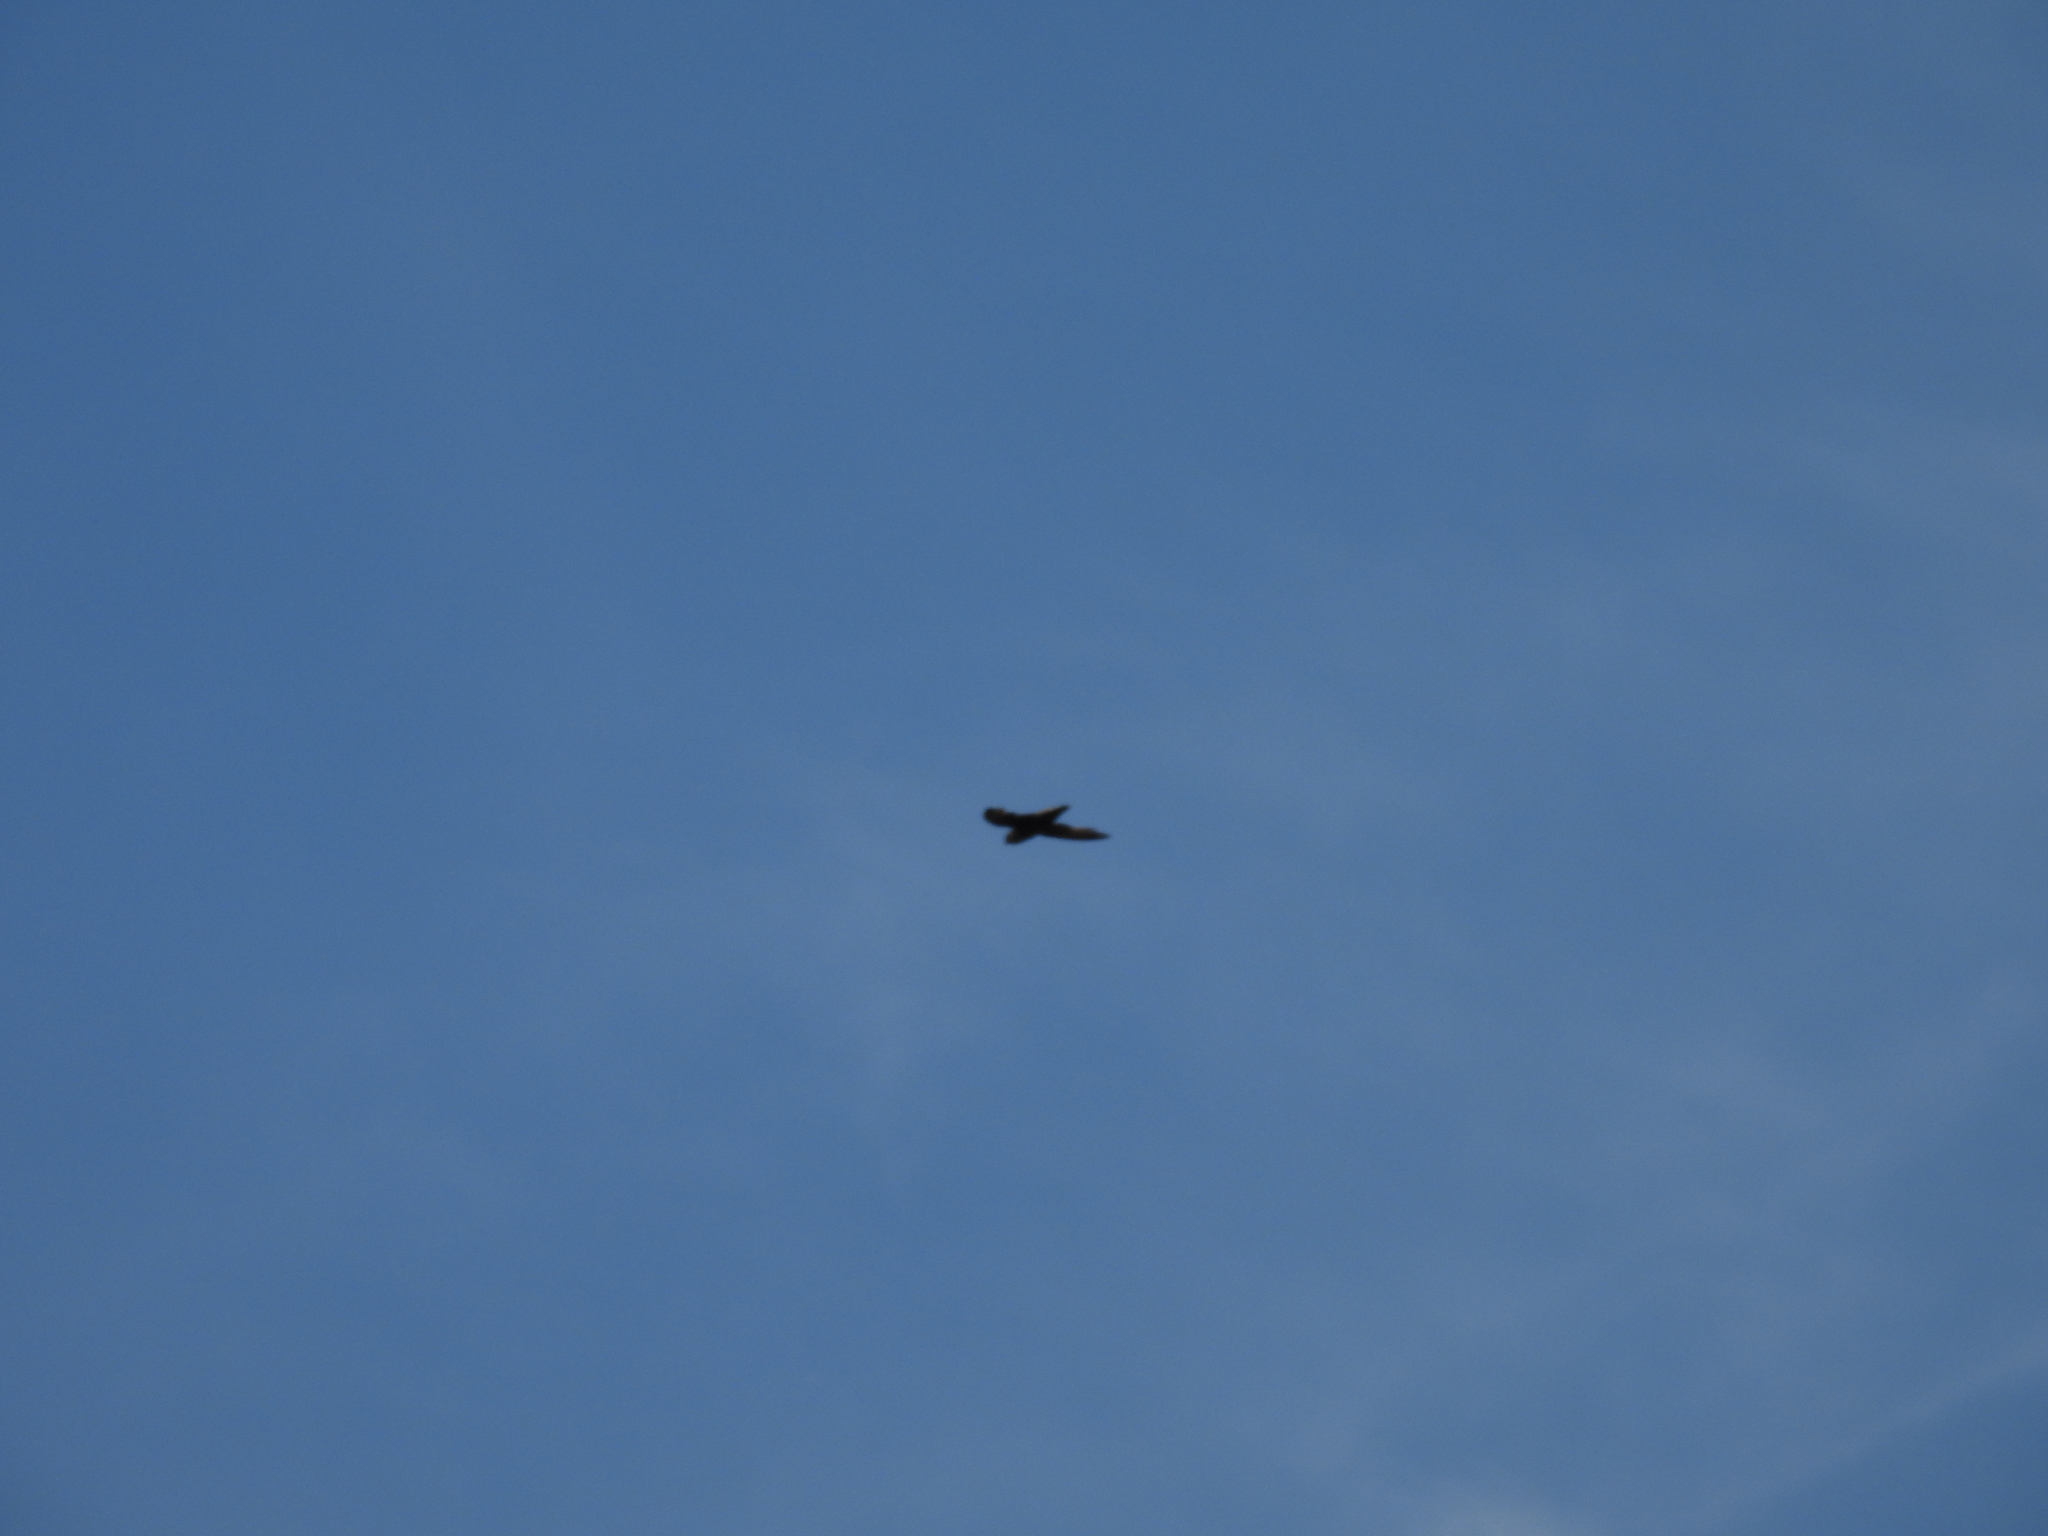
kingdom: Animalia
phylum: Chordata
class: Aves
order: Apodiformes
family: Apodidae
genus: Chaetura
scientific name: Chaetura pelagica
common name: Chimney swift
